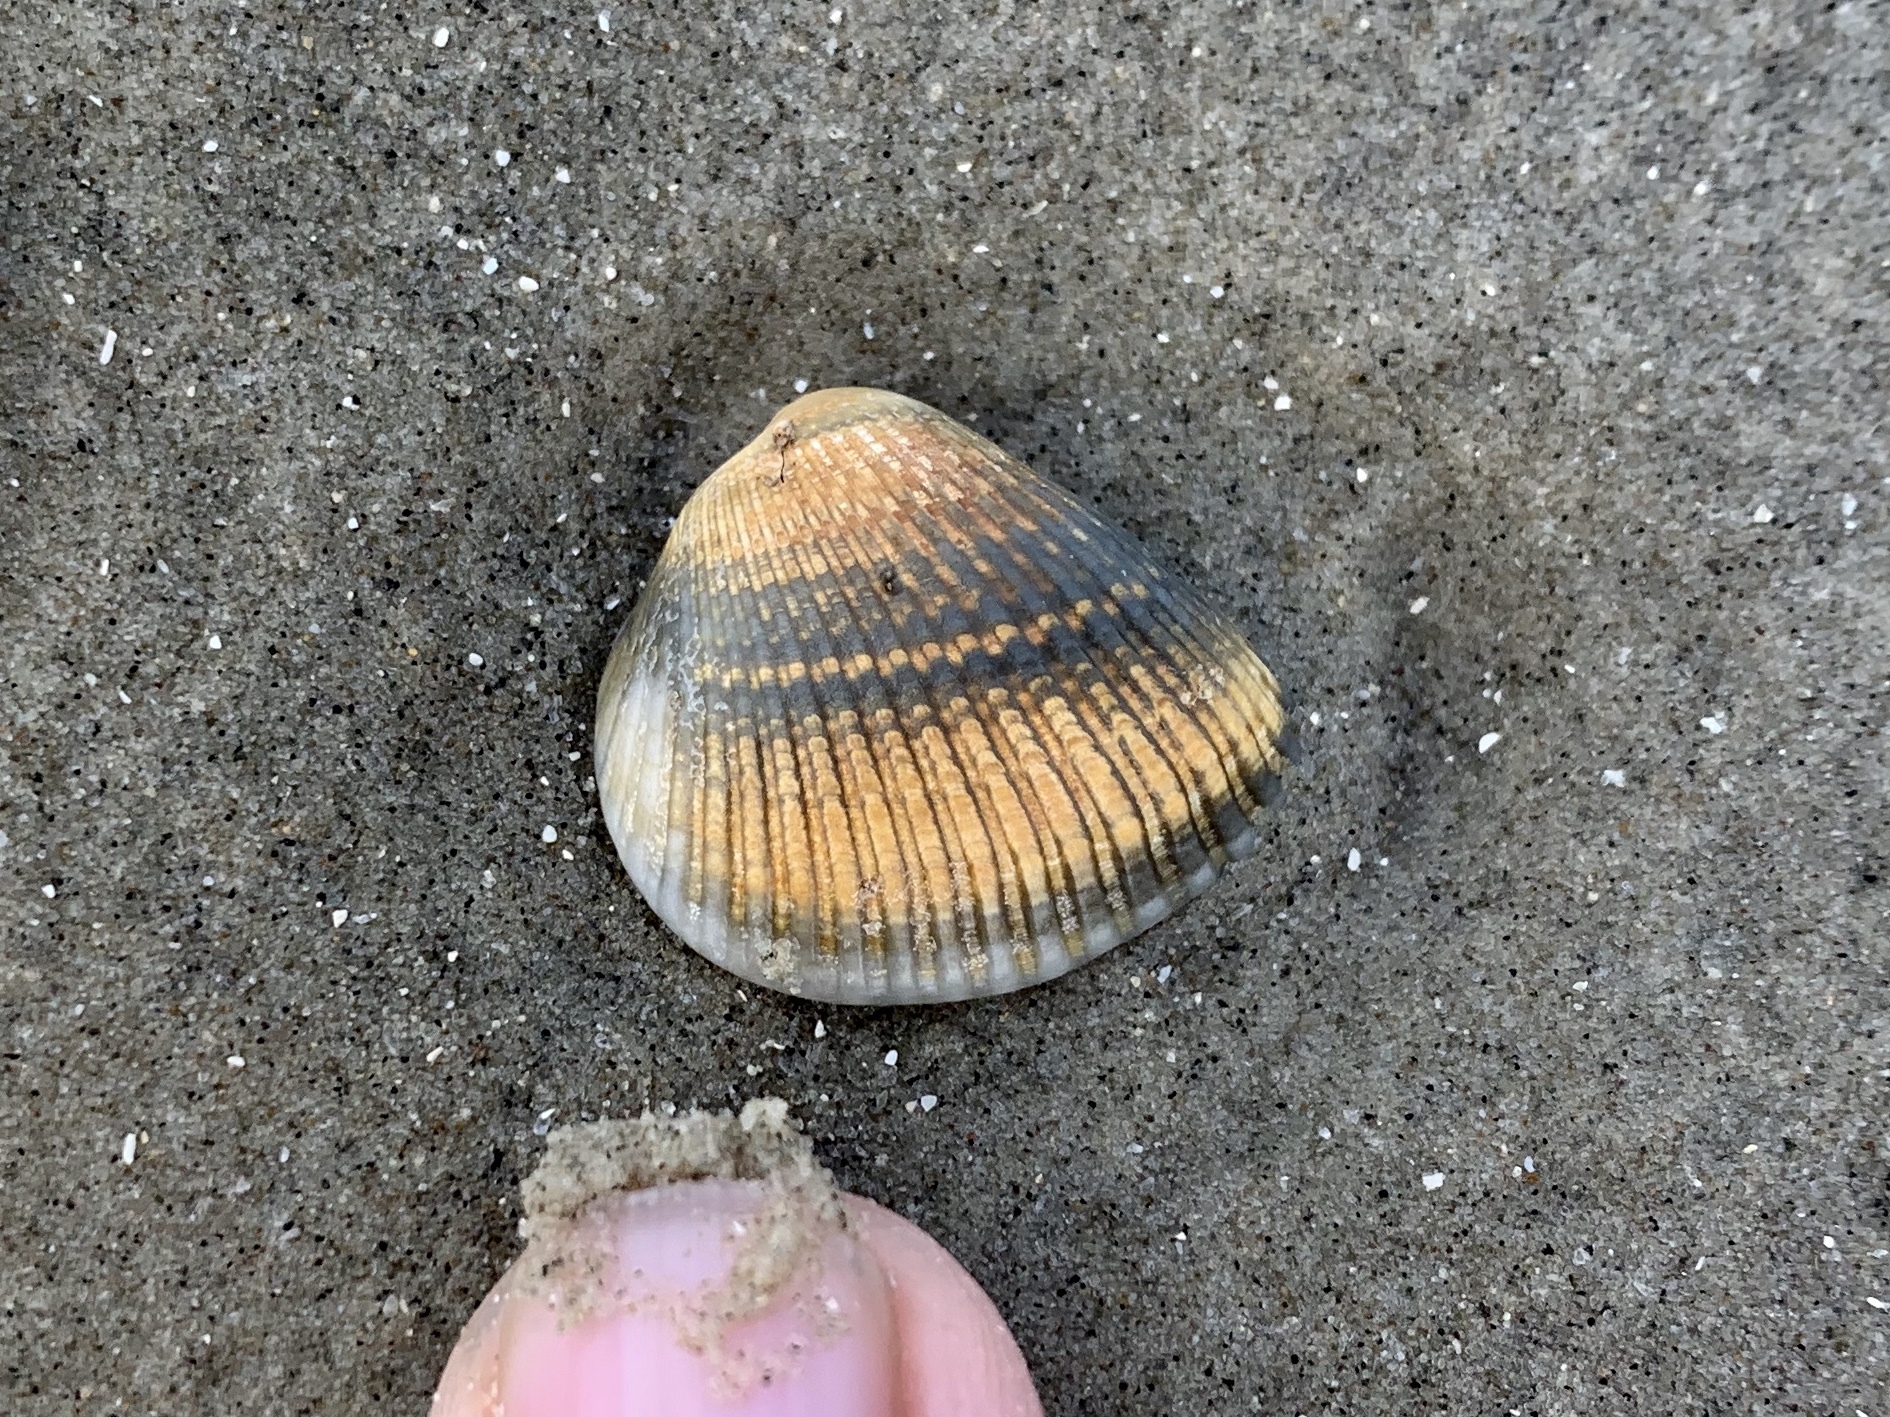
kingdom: Animalia
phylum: Mollusca
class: Bivalvia
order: Arcida
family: Noetiidae
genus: Noetia
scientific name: Noetia ponderosa
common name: Ponderous ark
